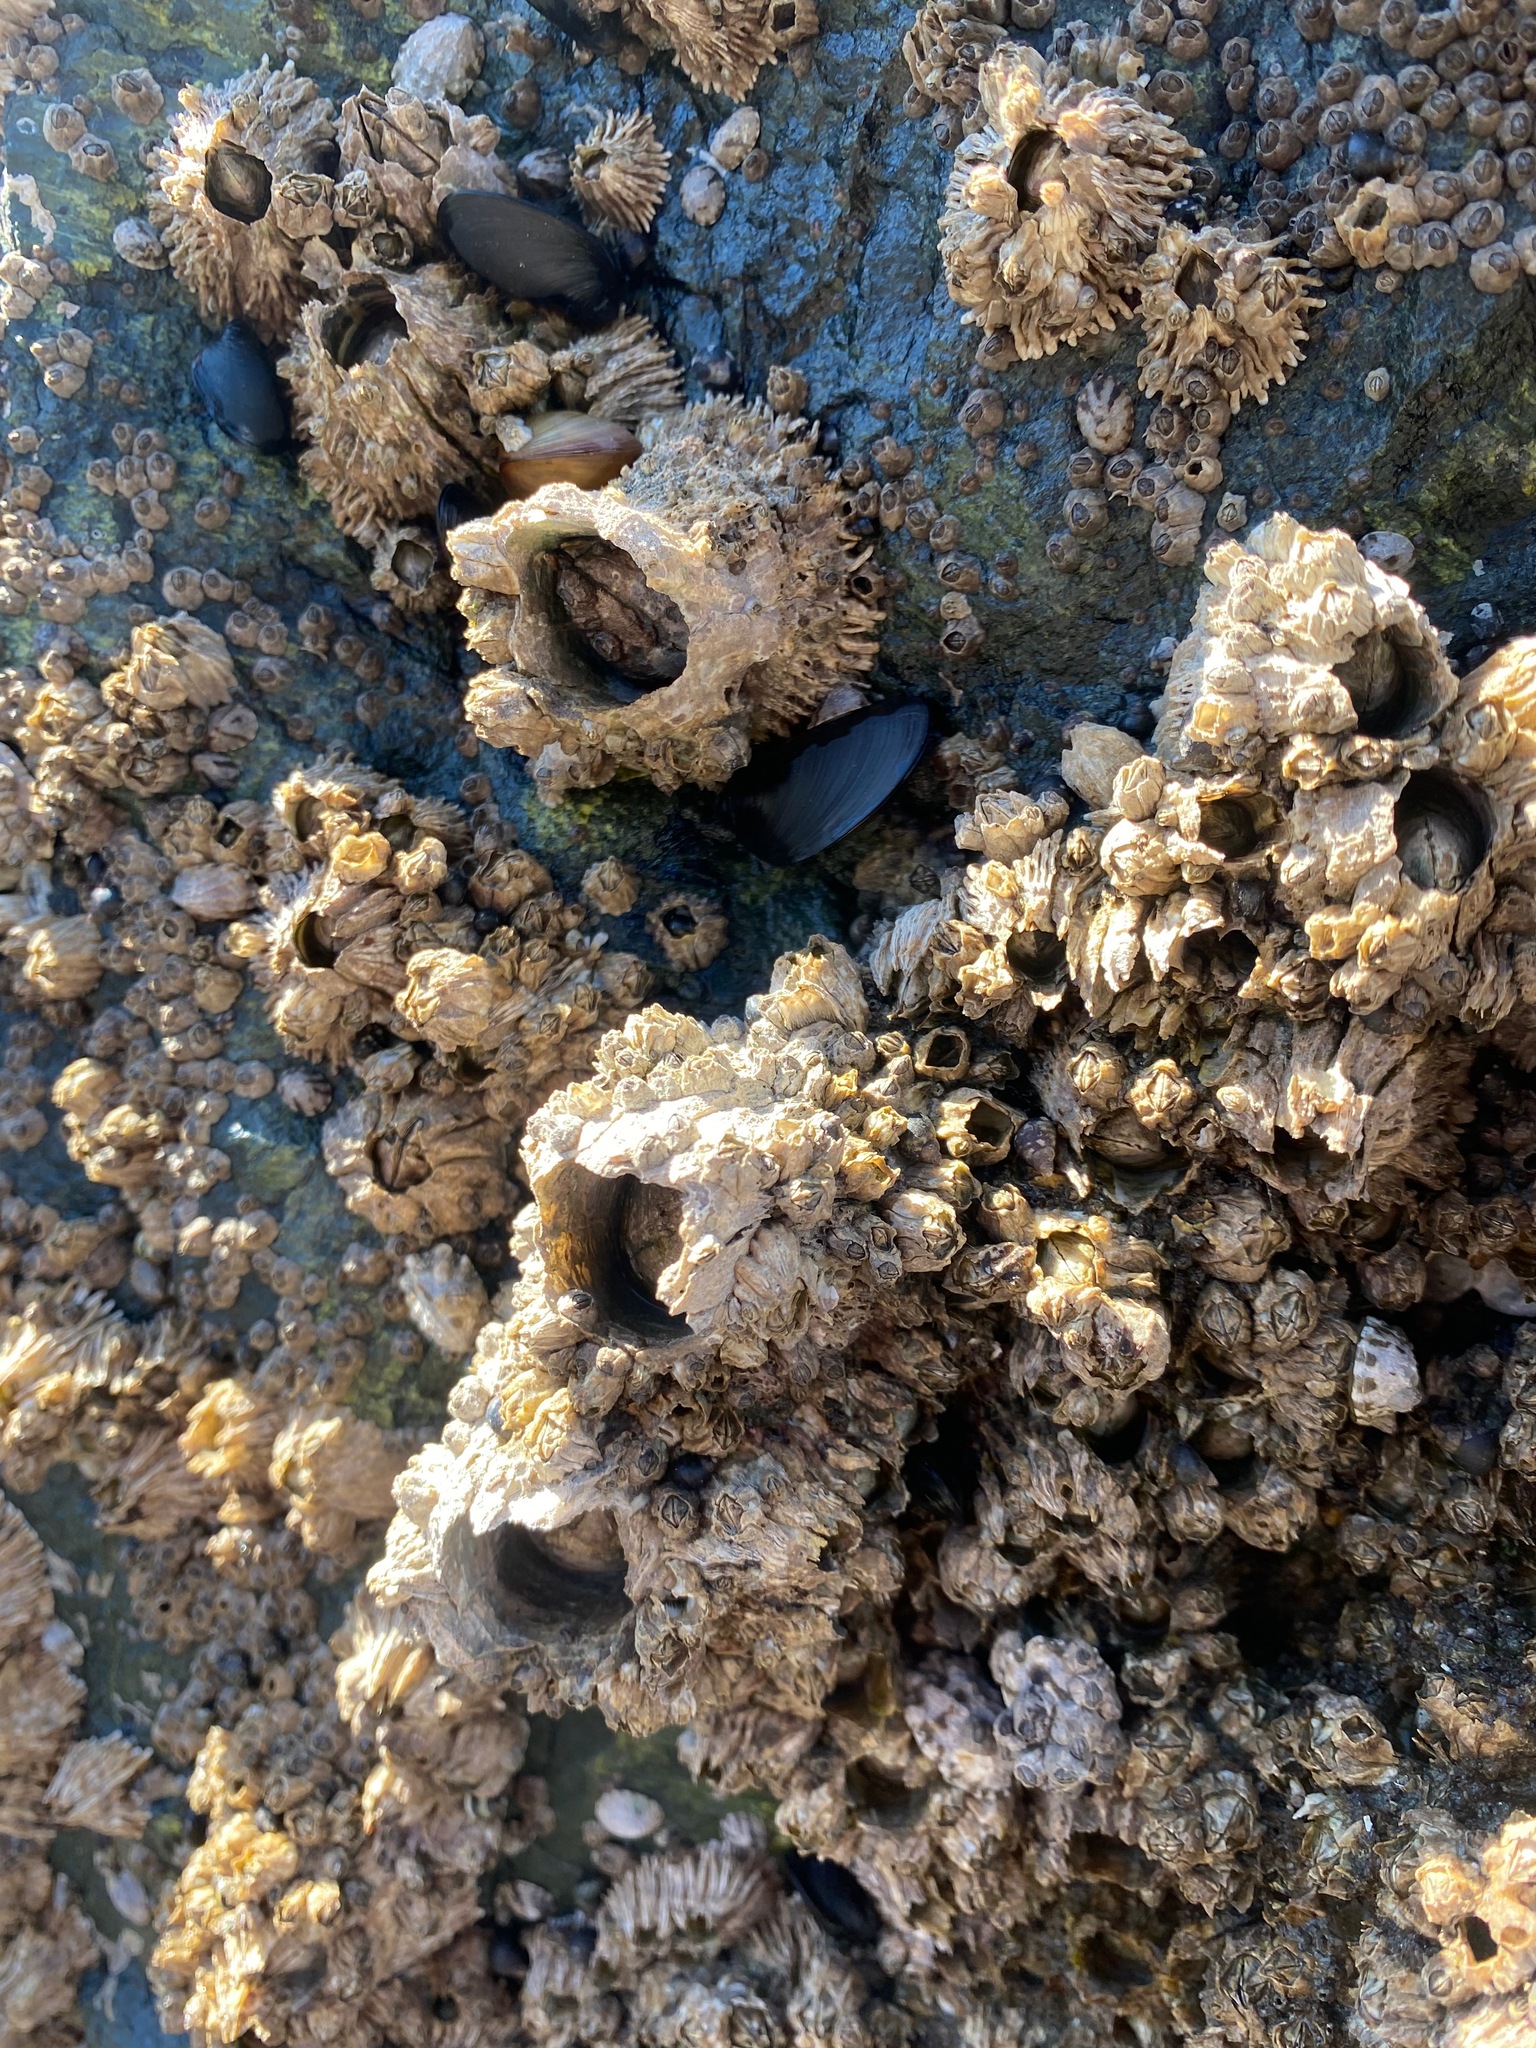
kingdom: Animalia
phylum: Arthropoda
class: Maxillopoda
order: Sessilia
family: Archaeobalanidae
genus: Semibalanus
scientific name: Semibalanus cariosus
